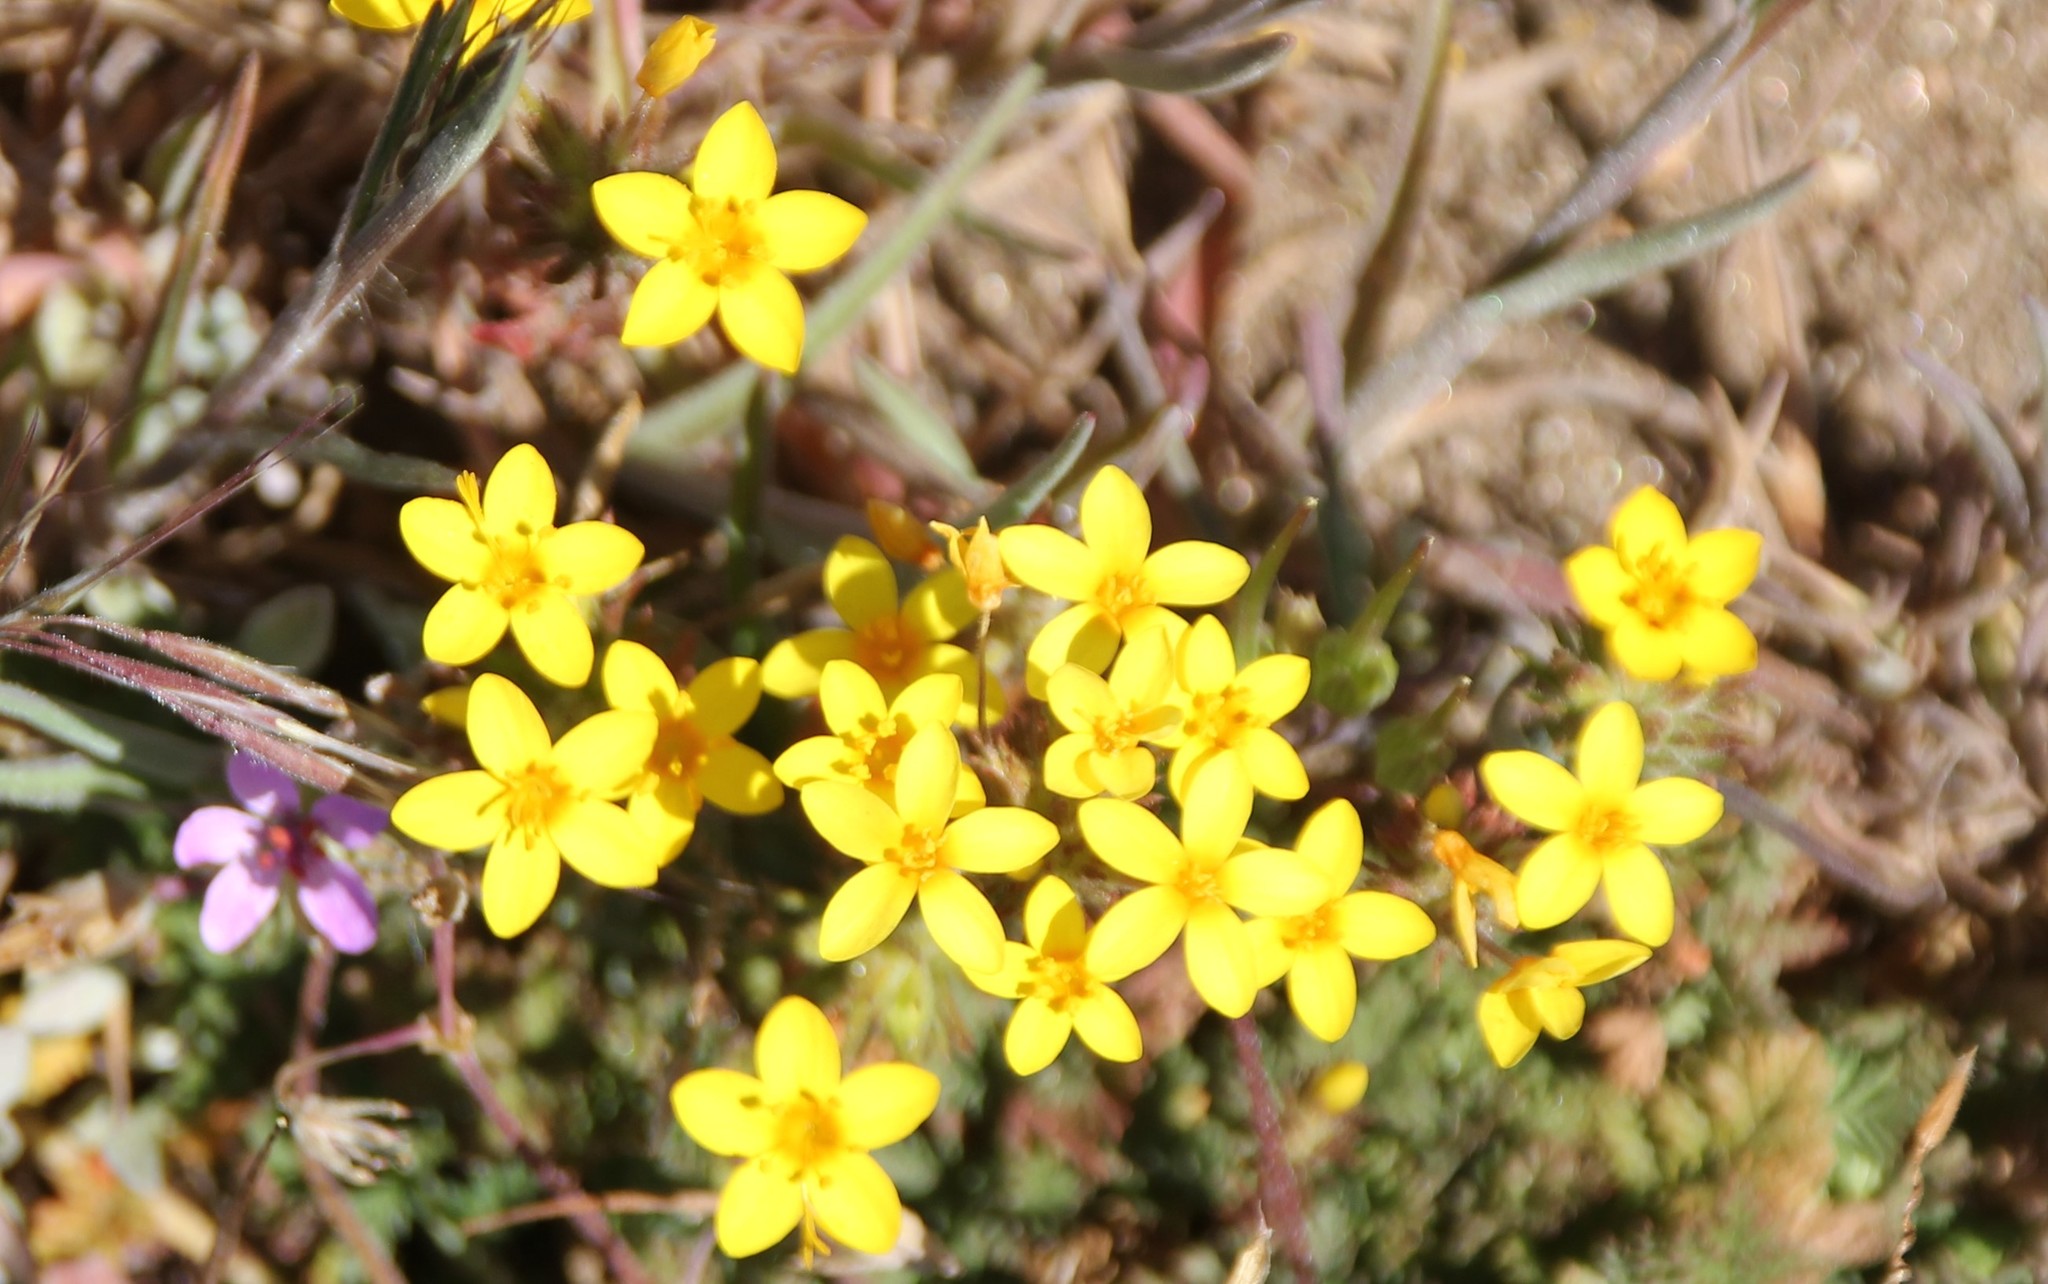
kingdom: Plantae
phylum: Tracheophyta
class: Magnoliopsida
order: Ericales
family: Polemoniaceae
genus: Leptosiphon
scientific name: Leptosiphon parviflorus
